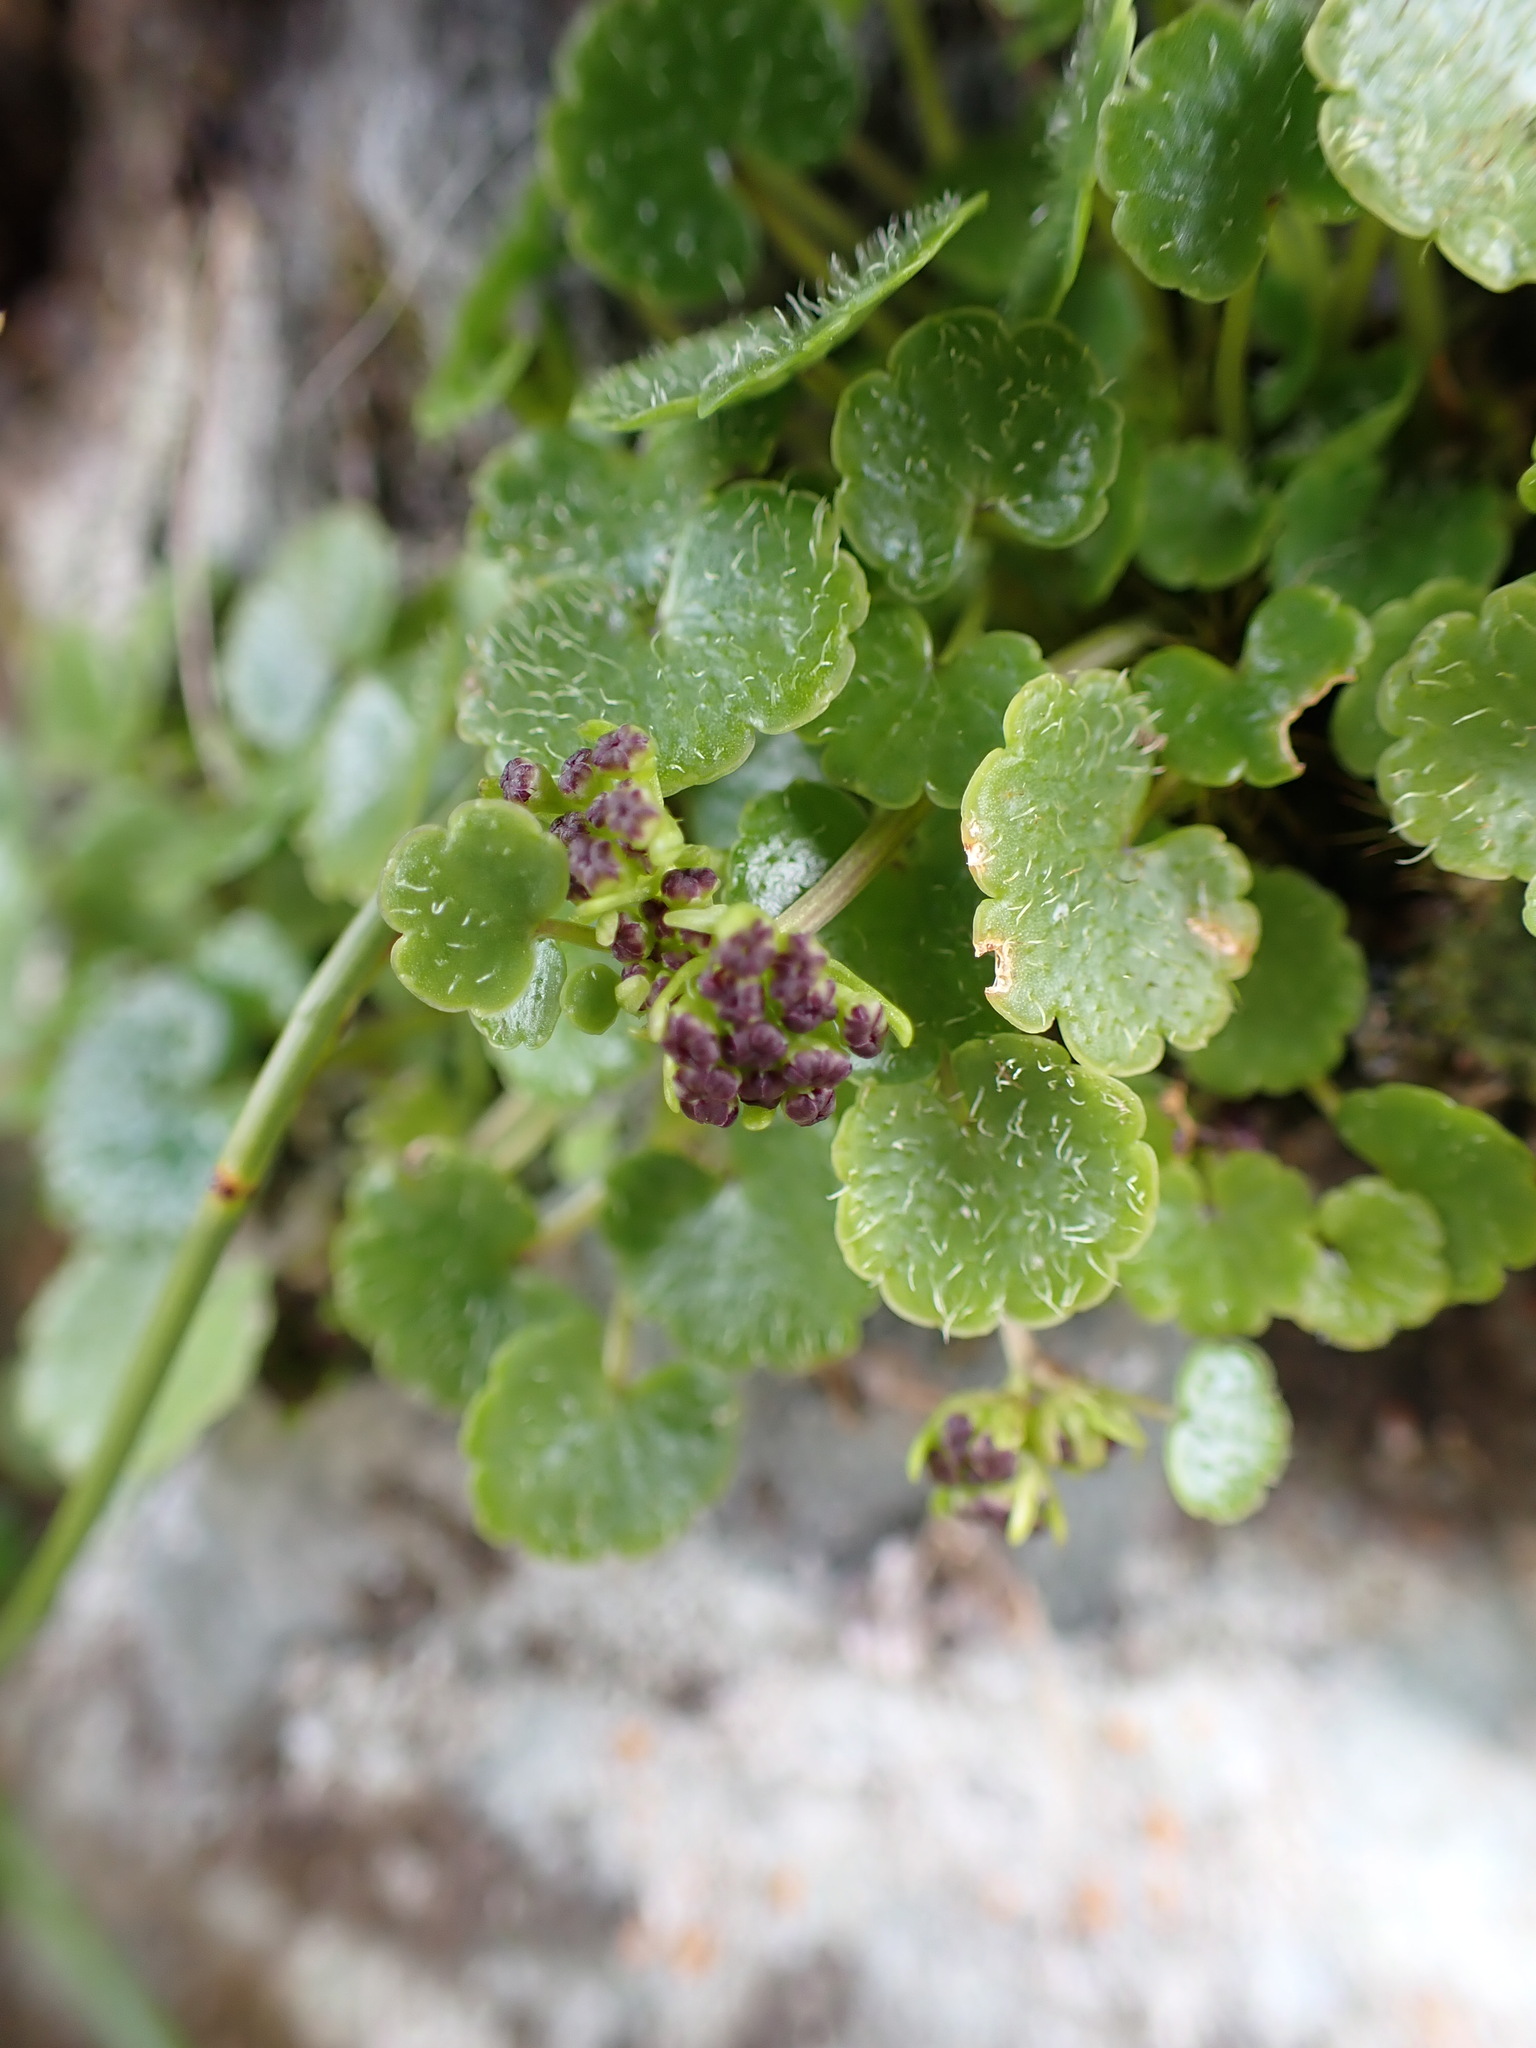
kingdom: Plantae
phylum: Tracheophyta
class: Magnoliopsida
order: Apiales
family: Apiaceae
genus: Azorella
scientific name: Azorella haastii
